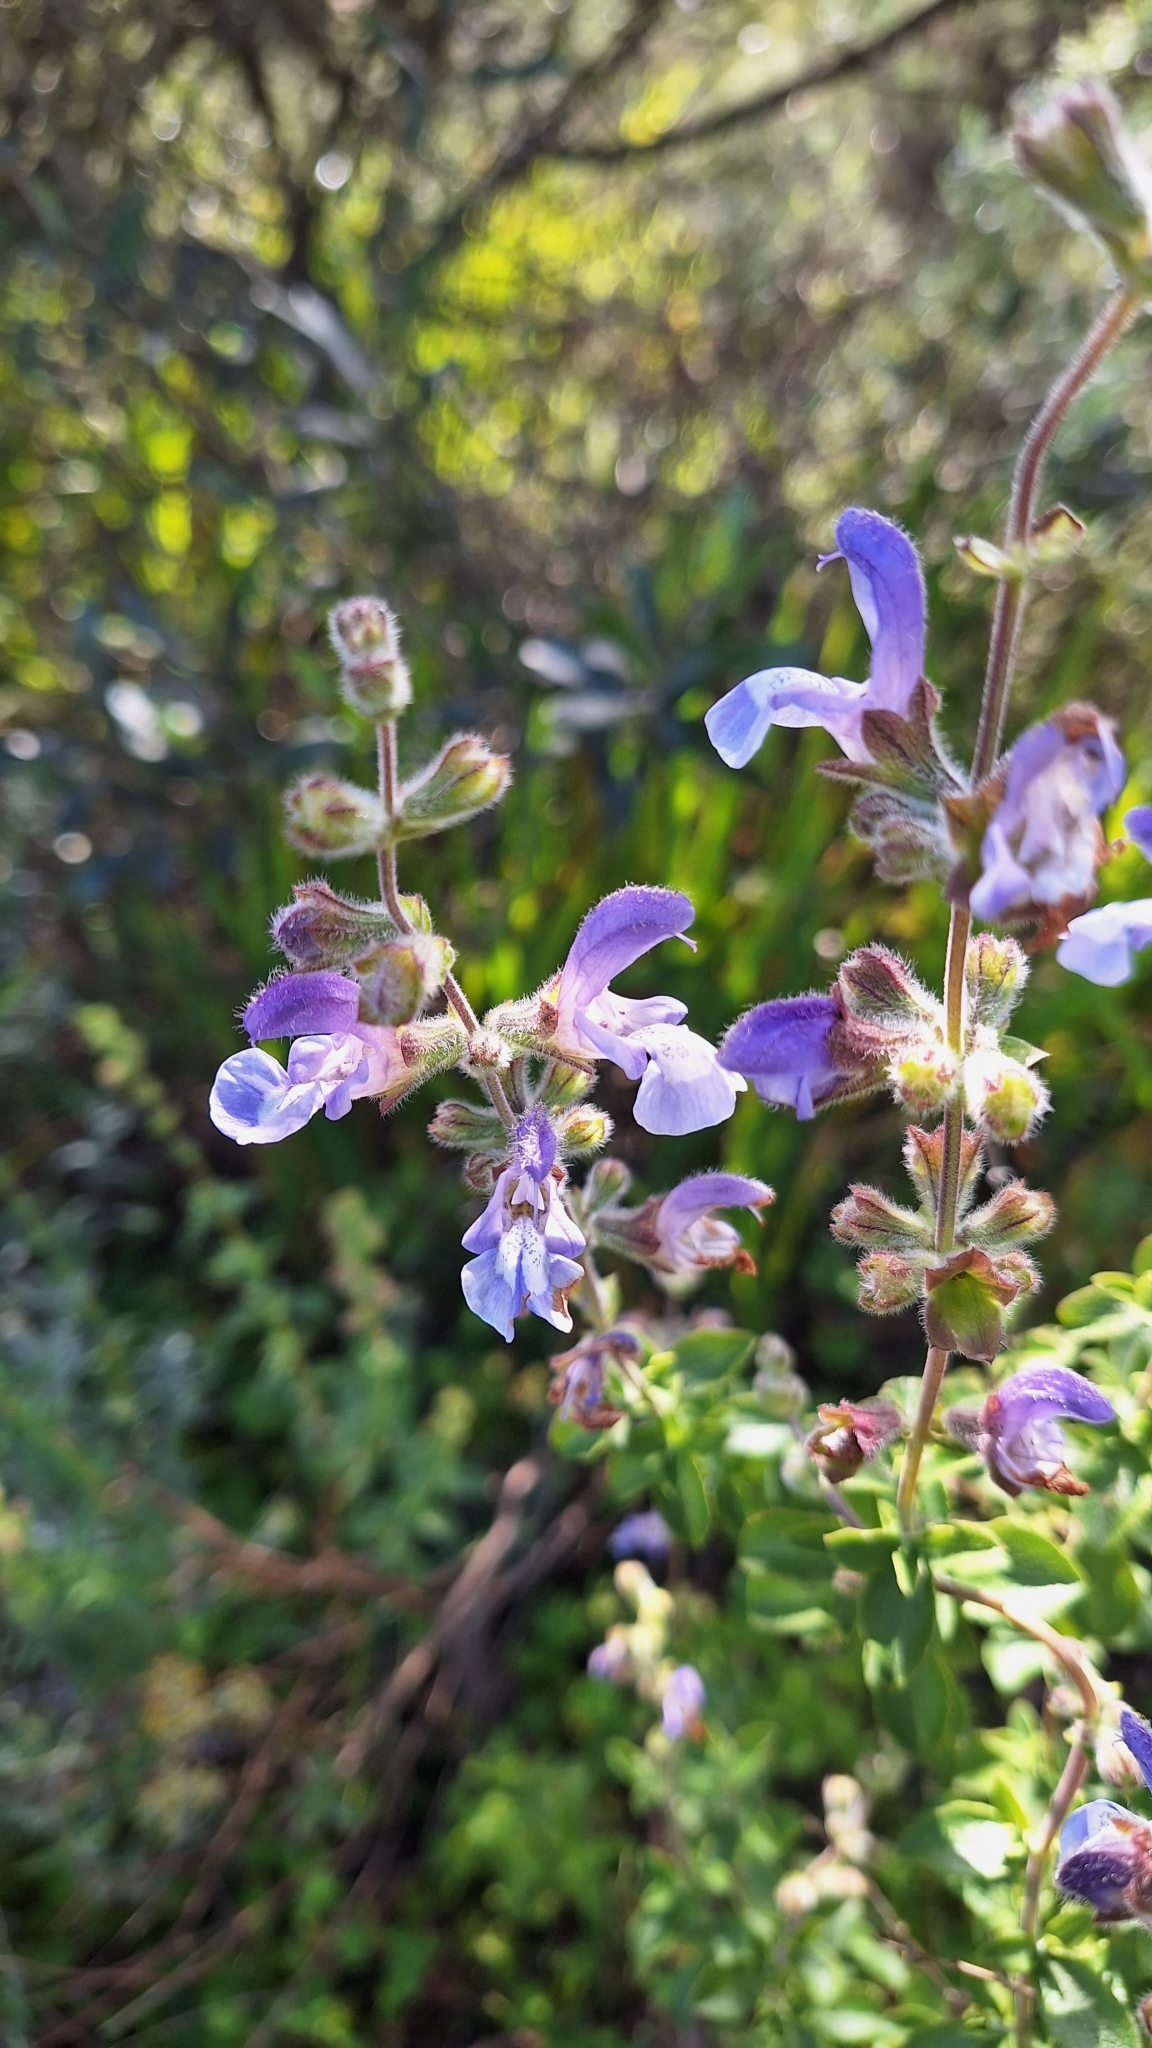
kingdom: Plantae
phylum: Tracheophyta
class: Magnoliopsida
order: Lamiales
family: Lamiaceae
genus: Salvia
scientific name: Salvia africana
